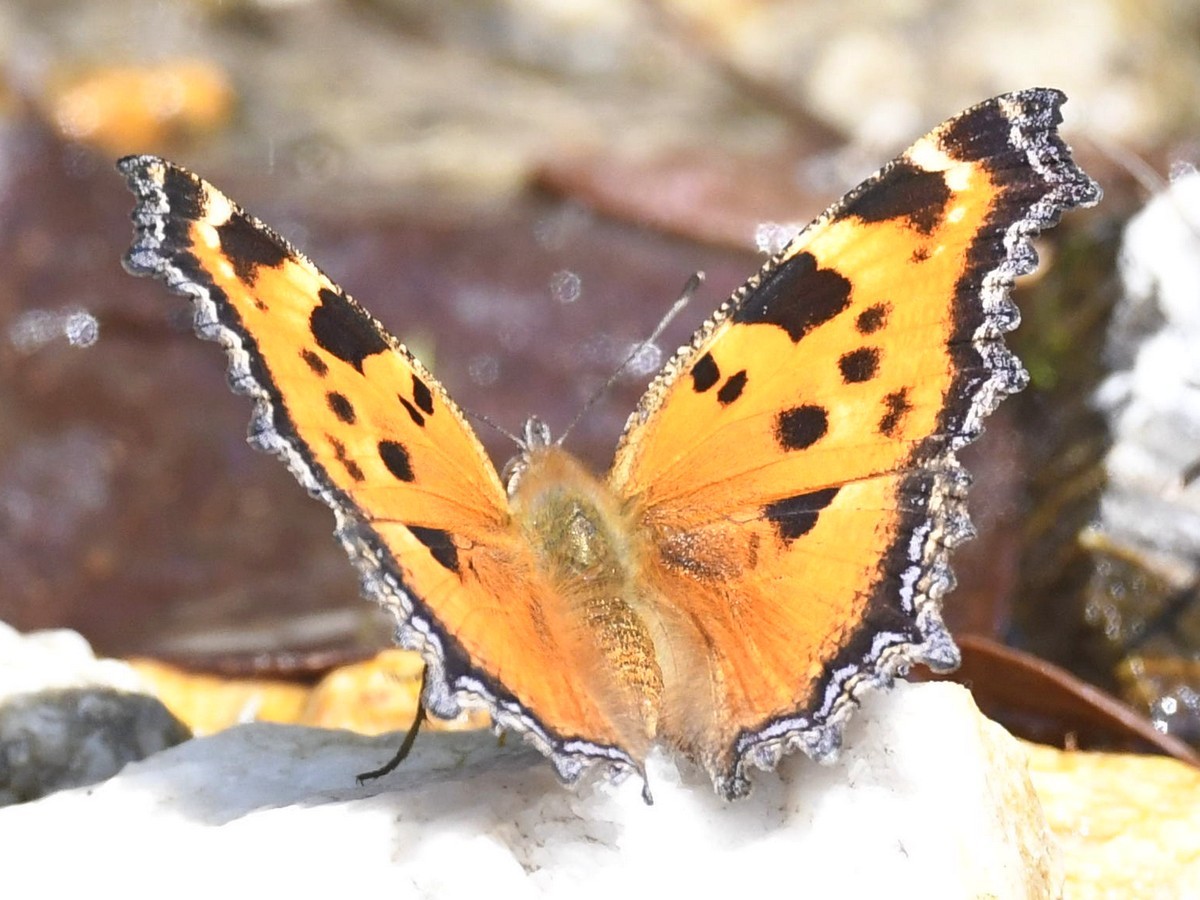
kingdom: Animalia
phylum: Arthropoda
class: Insecta
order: Lepidoptera
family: Nymphalidae
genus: Nymphalis
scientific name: Nymphalis xanthomelas
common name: Scarce tortoiseshell
